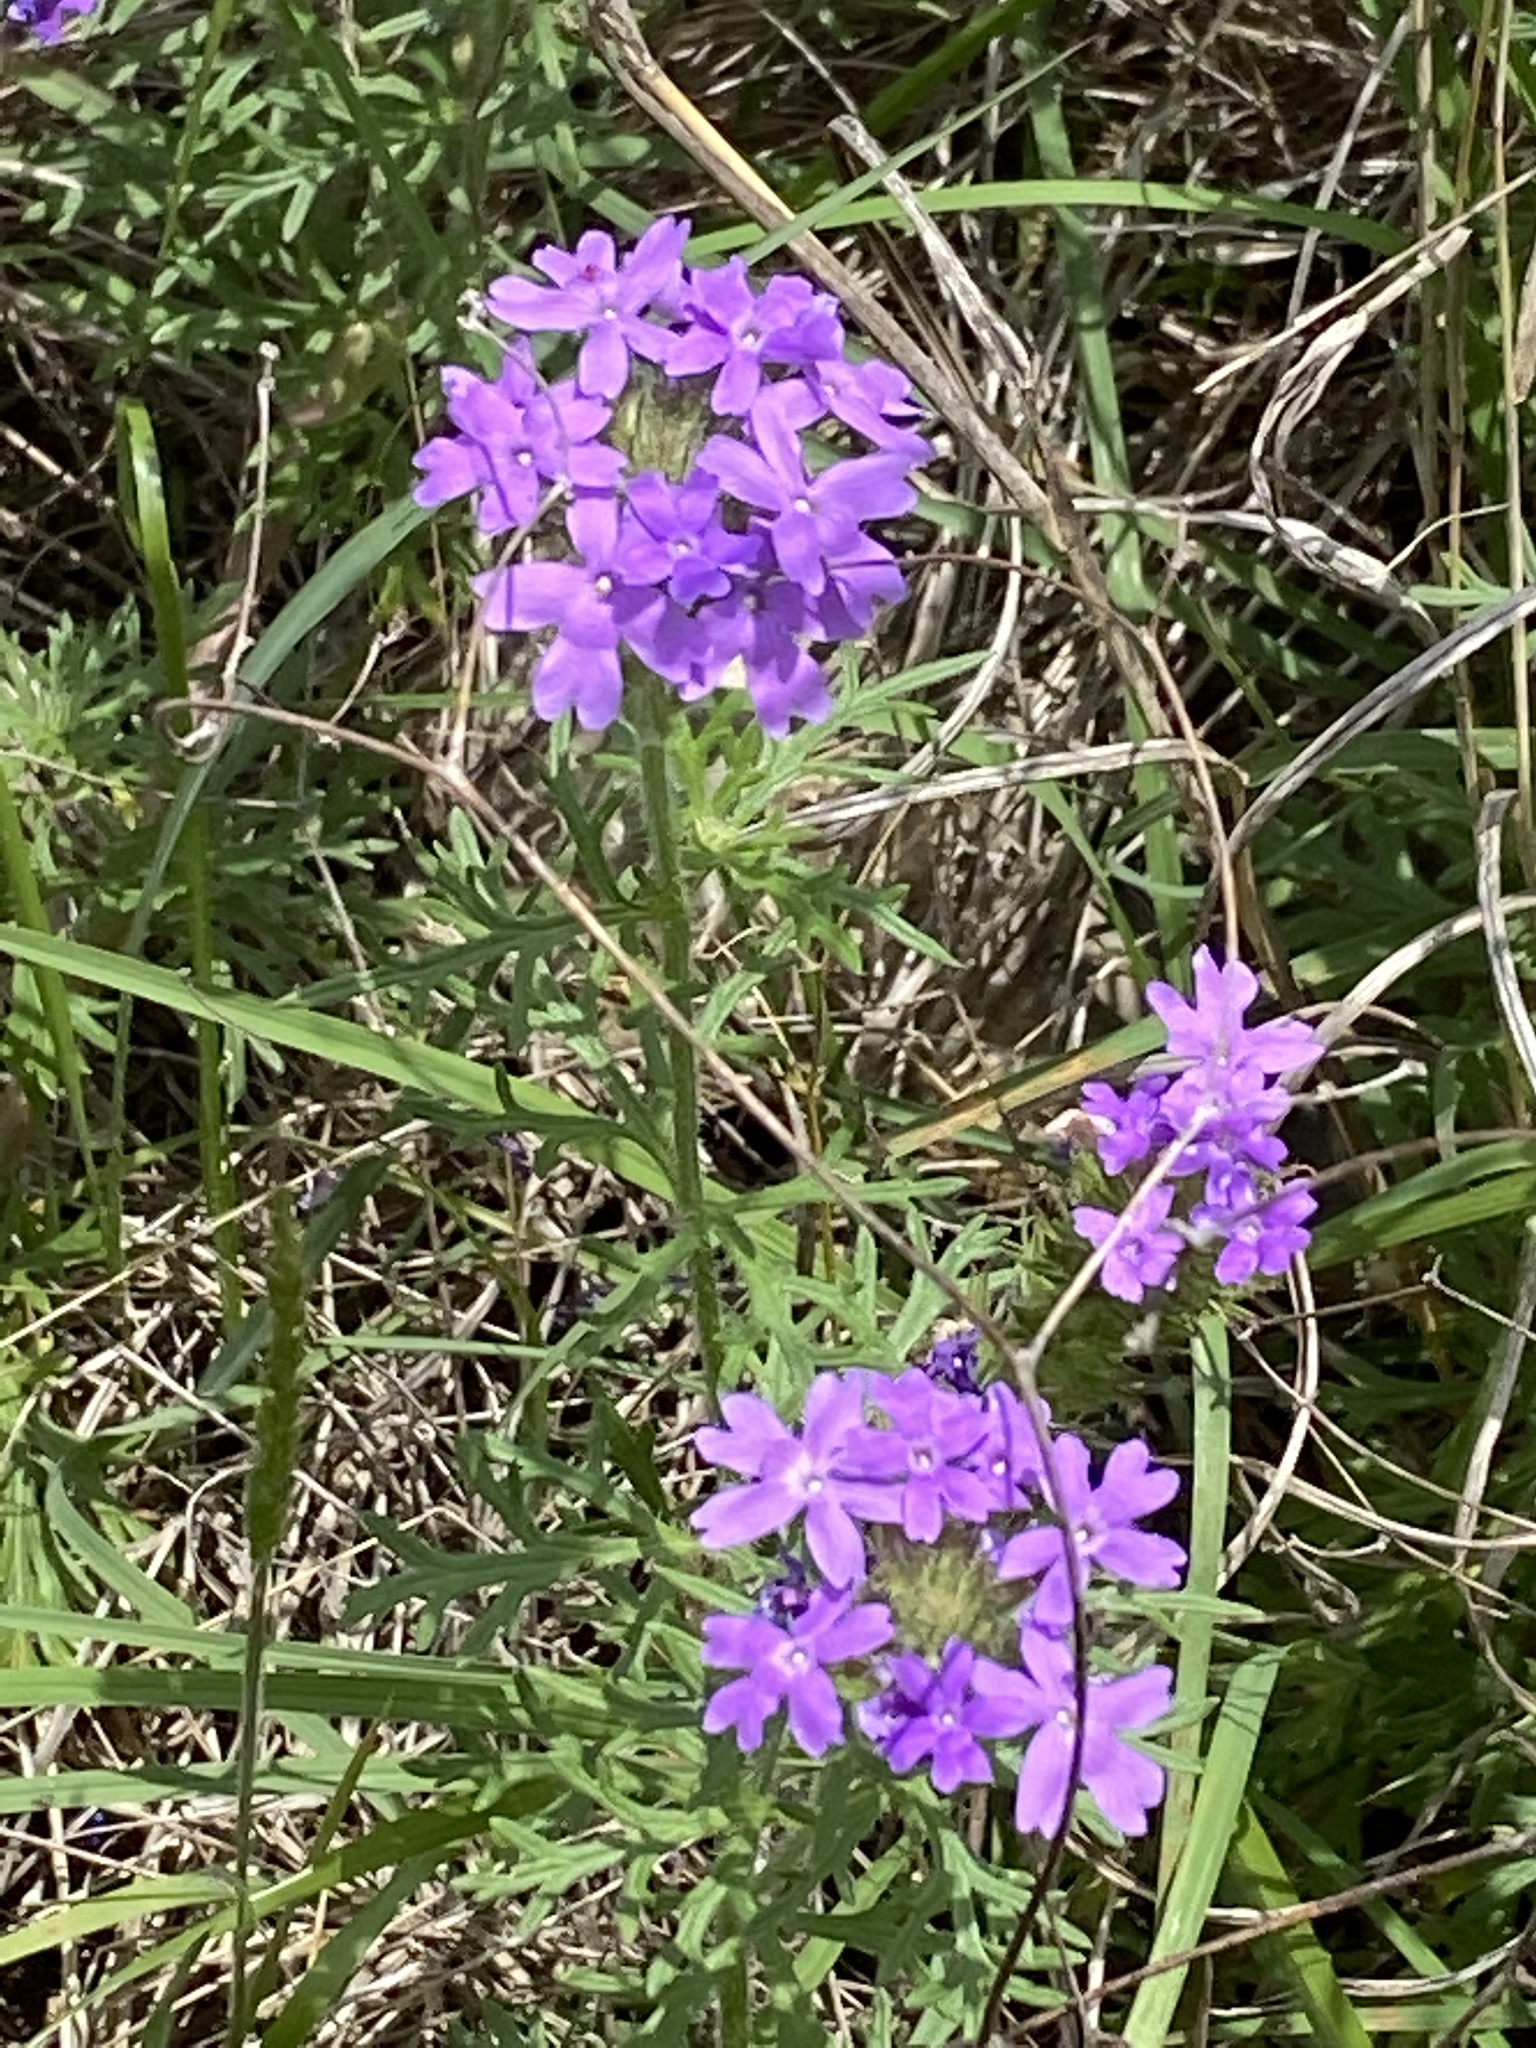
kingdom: Plantae
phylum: Tracheophyta
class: Magnoliopsida
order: Lamiales
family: Verbenaceae
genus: Verbena
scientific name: Verbena bipinnatifida
